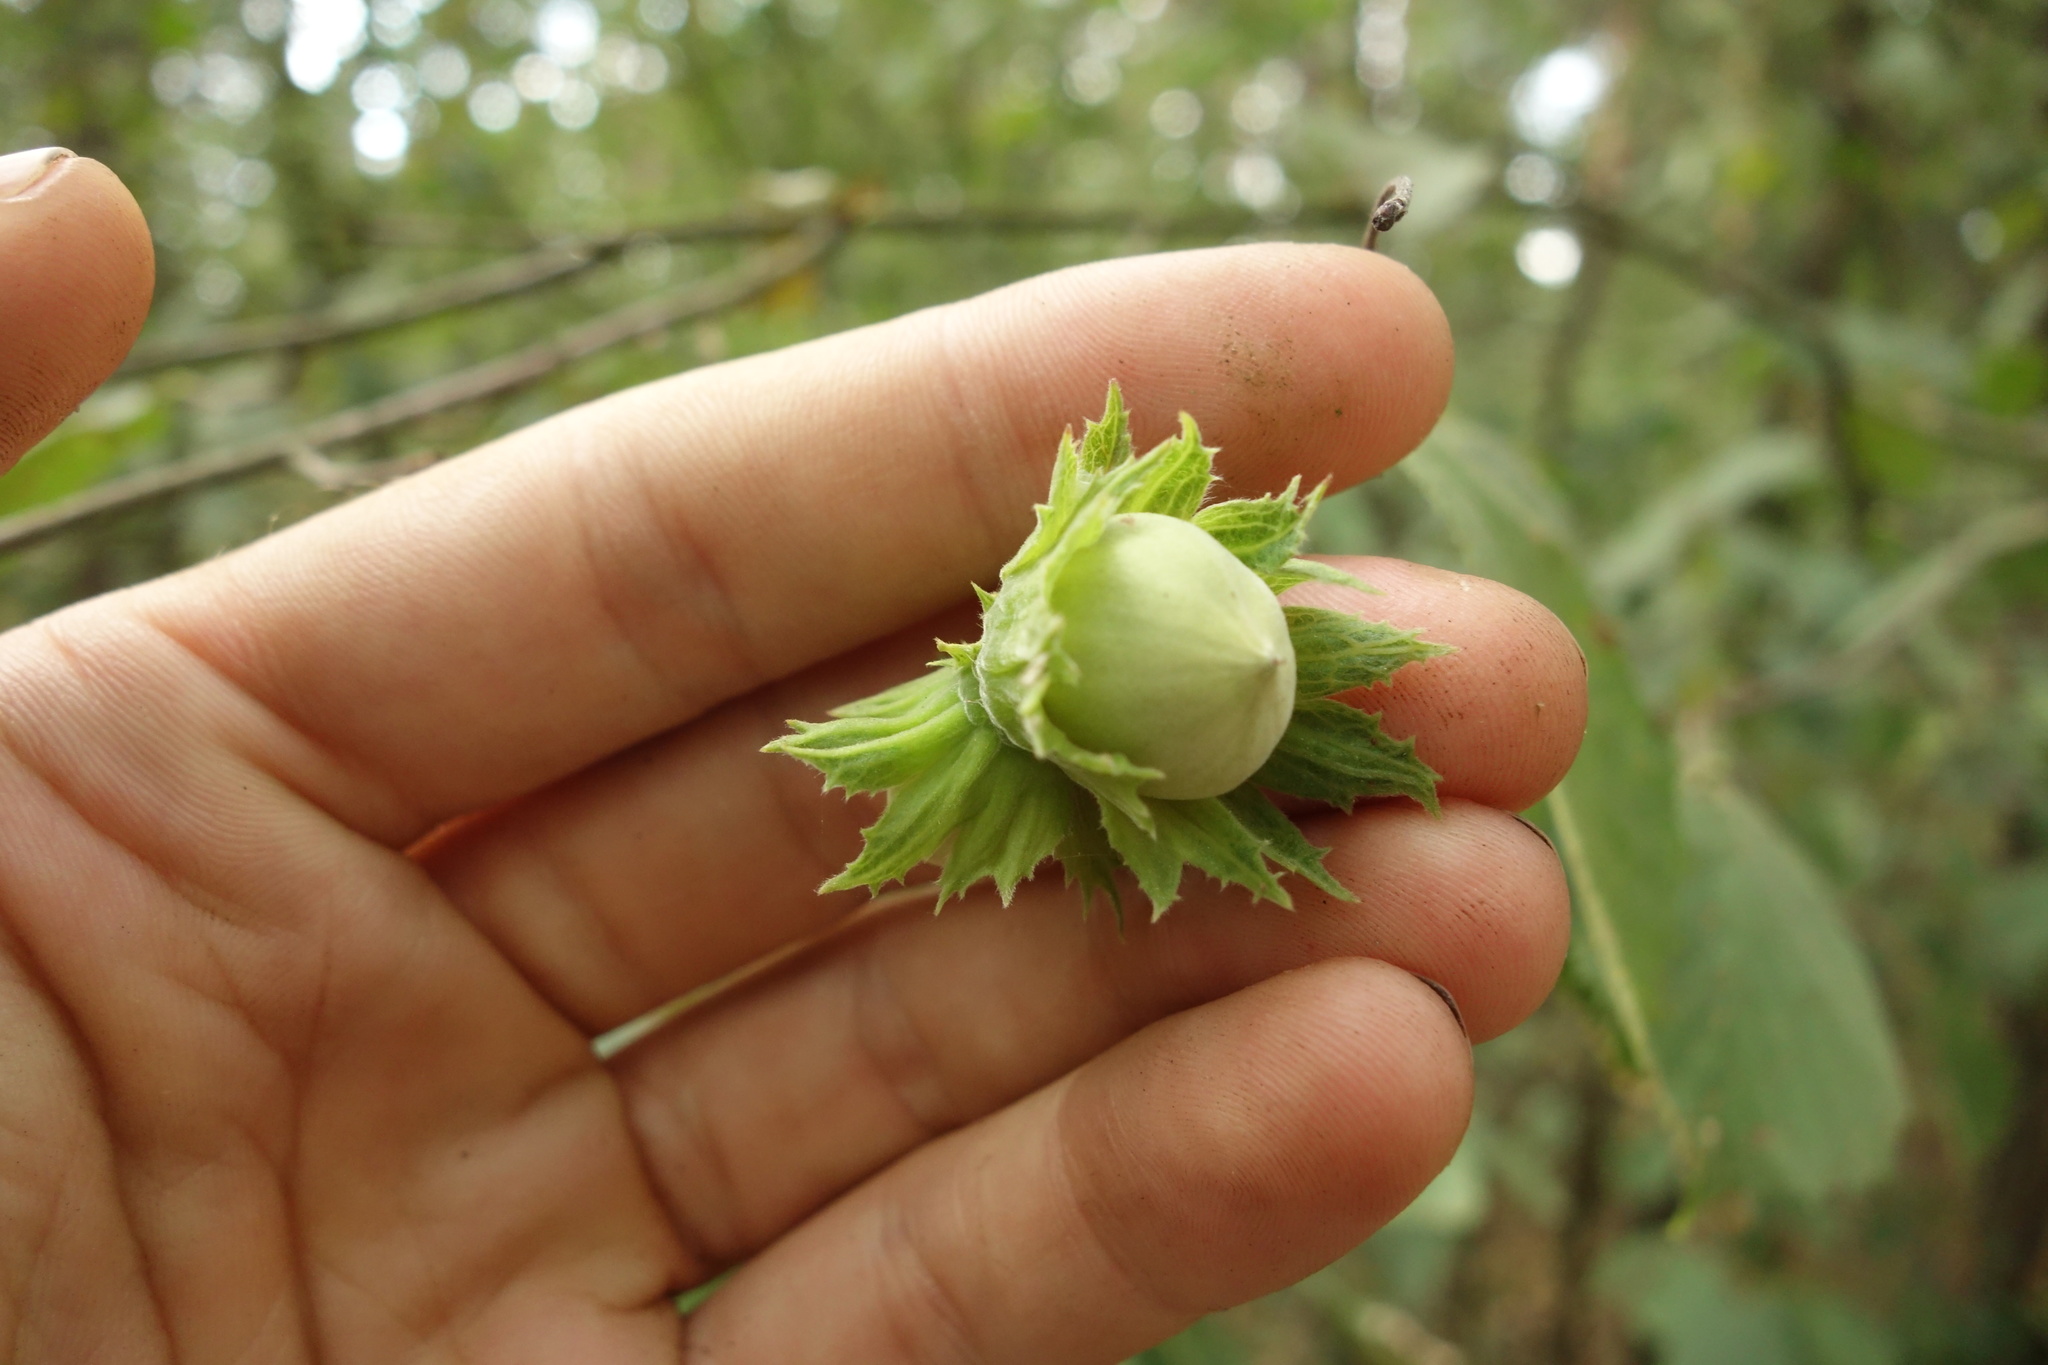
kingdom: Plantae
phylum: Tracheophyta
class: Magnoliopsida
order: Fagales
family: Betulaceae
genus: Corylus
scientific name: Corylus avellana
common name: European hazel
